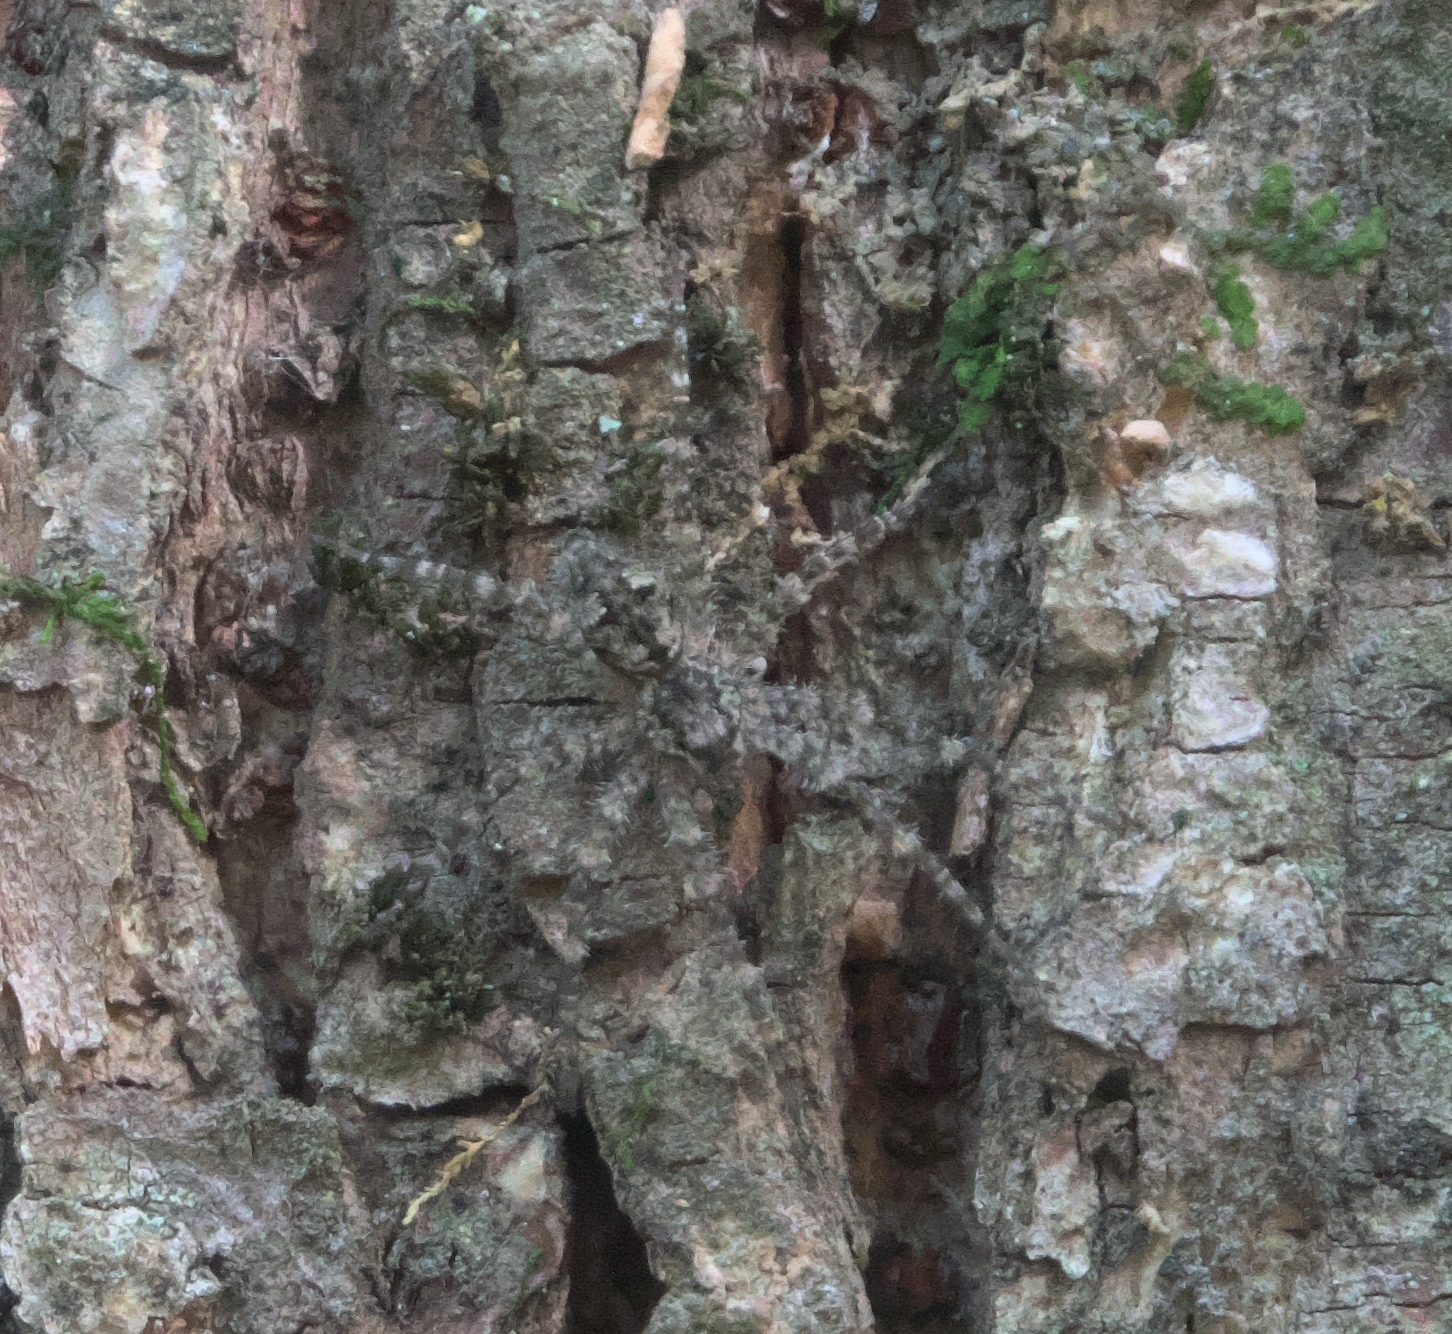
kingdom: Animalia
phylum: Arthropoda
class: Arachnida
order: Araneae
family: Pisauridae
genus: Dolomedes
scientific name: Dolomedes albineus
